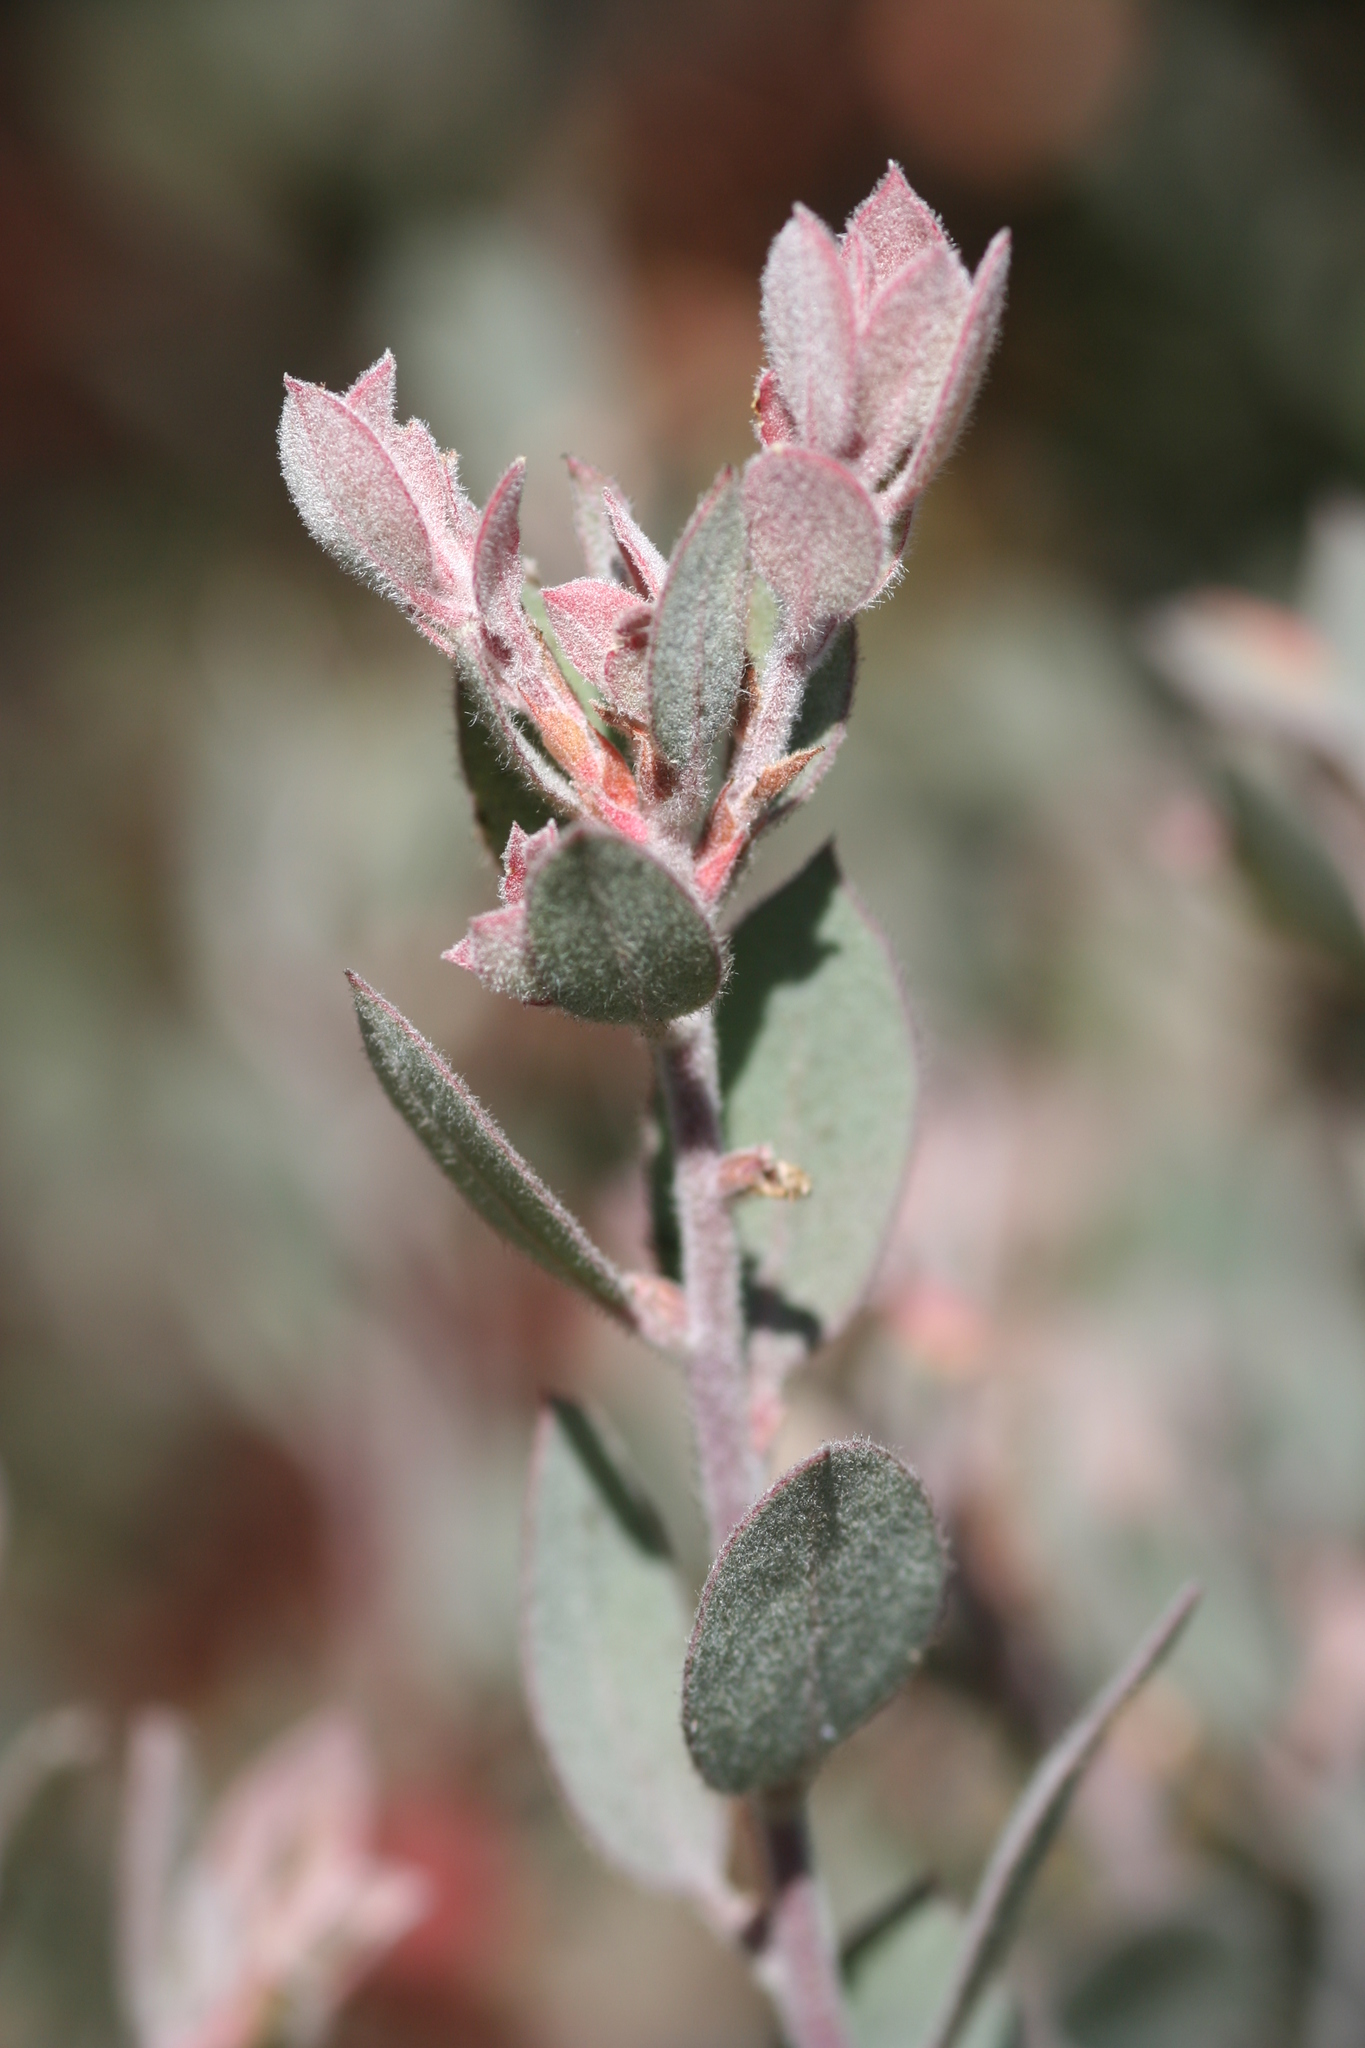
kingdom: Plantae
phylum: Tracheophyta
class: Magnoliopsida
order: Ericales
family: Ericaceae
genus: Arctostaphylos
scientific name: Arctostaphylos silvicola
